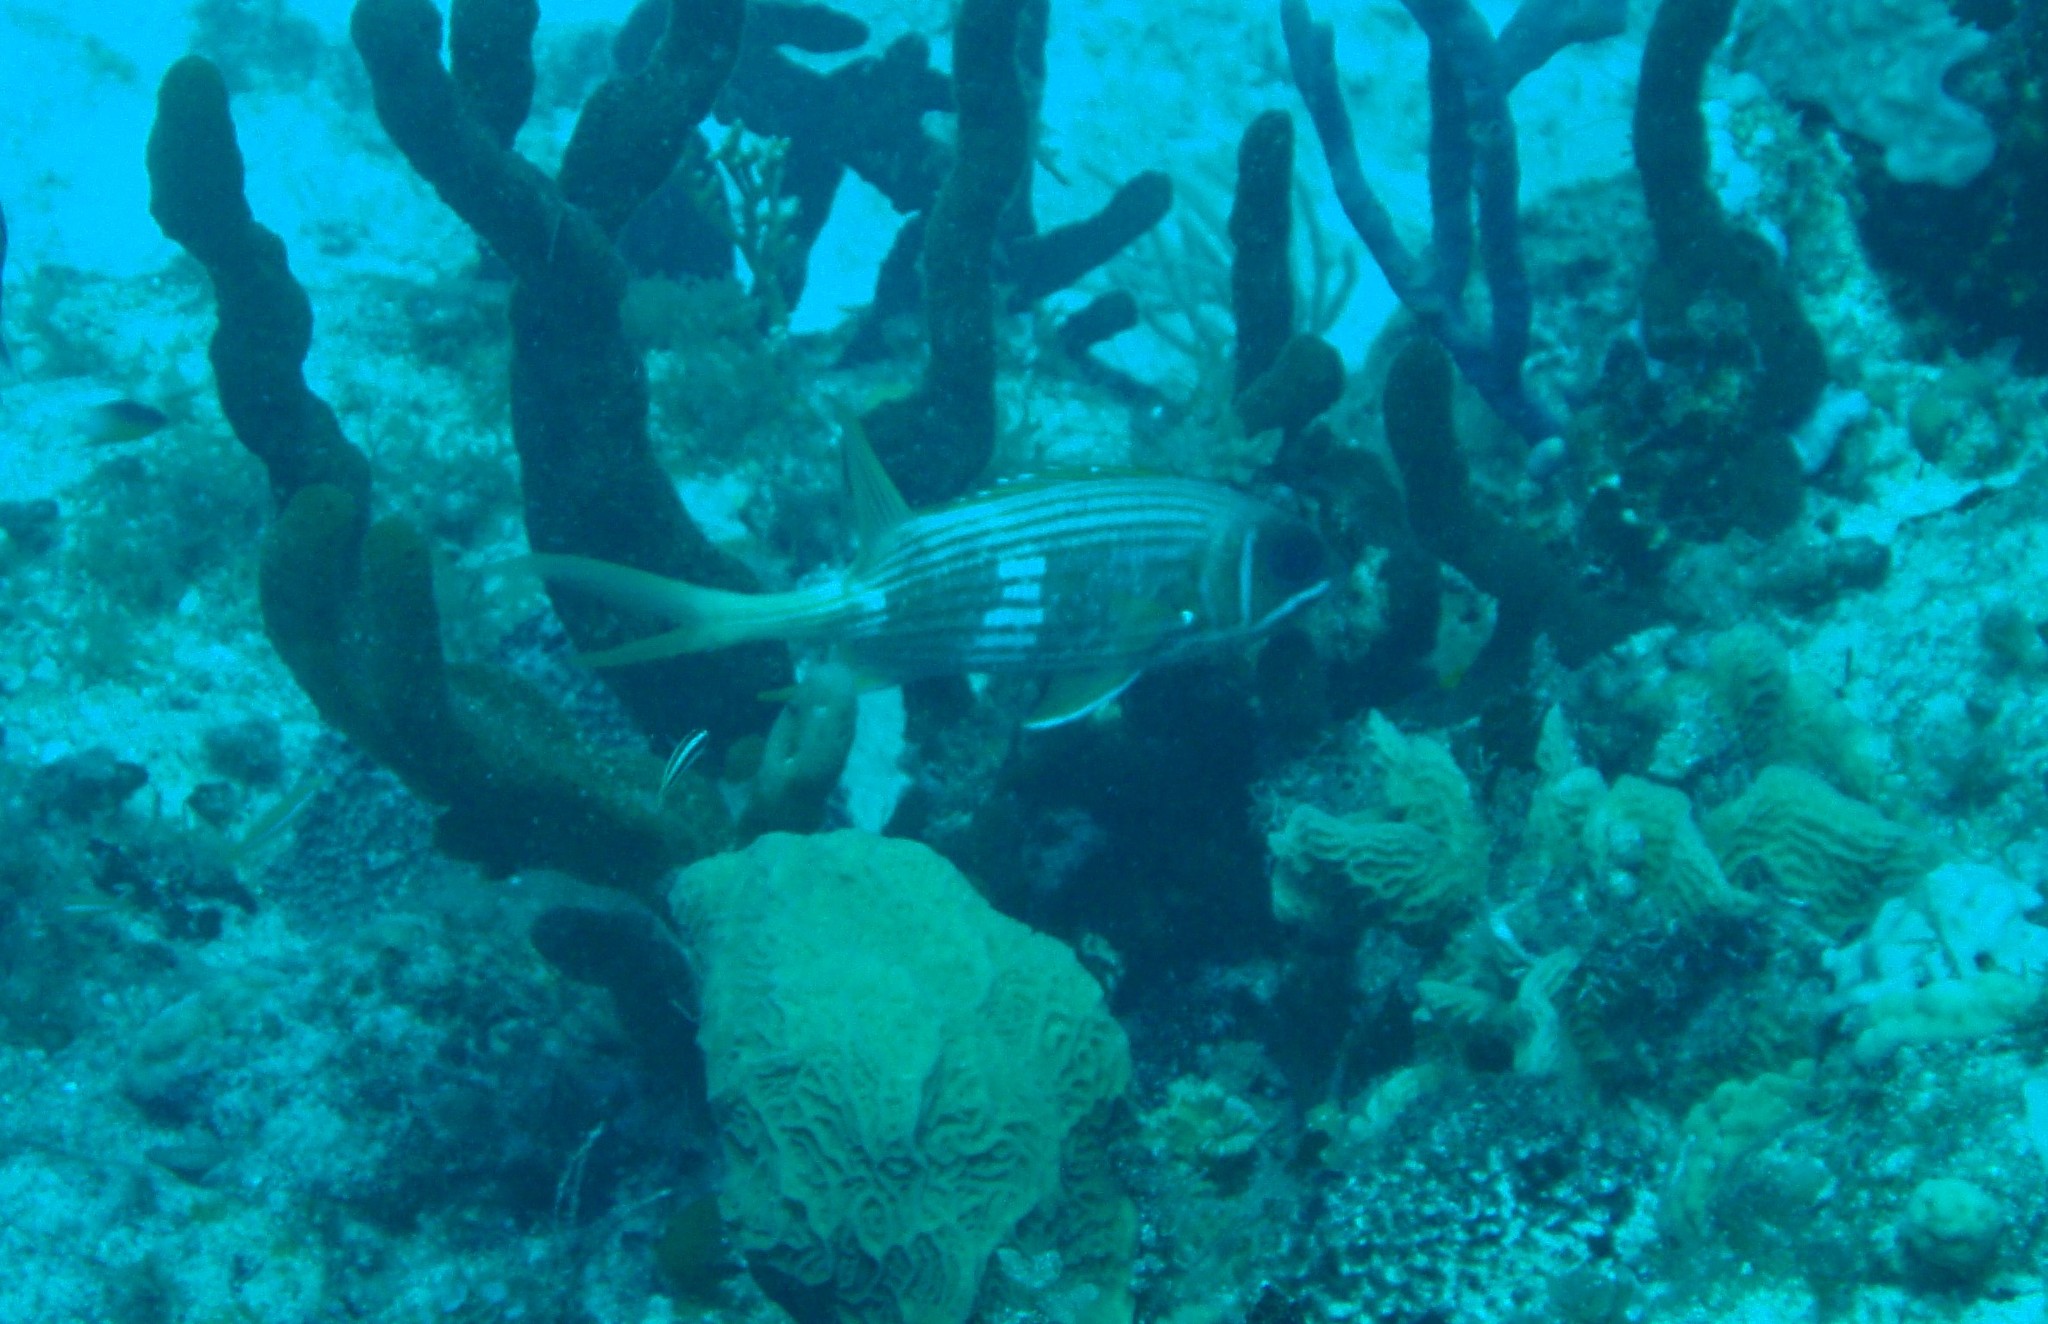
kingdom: Animalia
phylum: Chordata
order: Beryciformes
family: Holocentridae
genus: Holocentrus
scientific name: Holocentrus rufus
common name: Longspine squirrelfish
